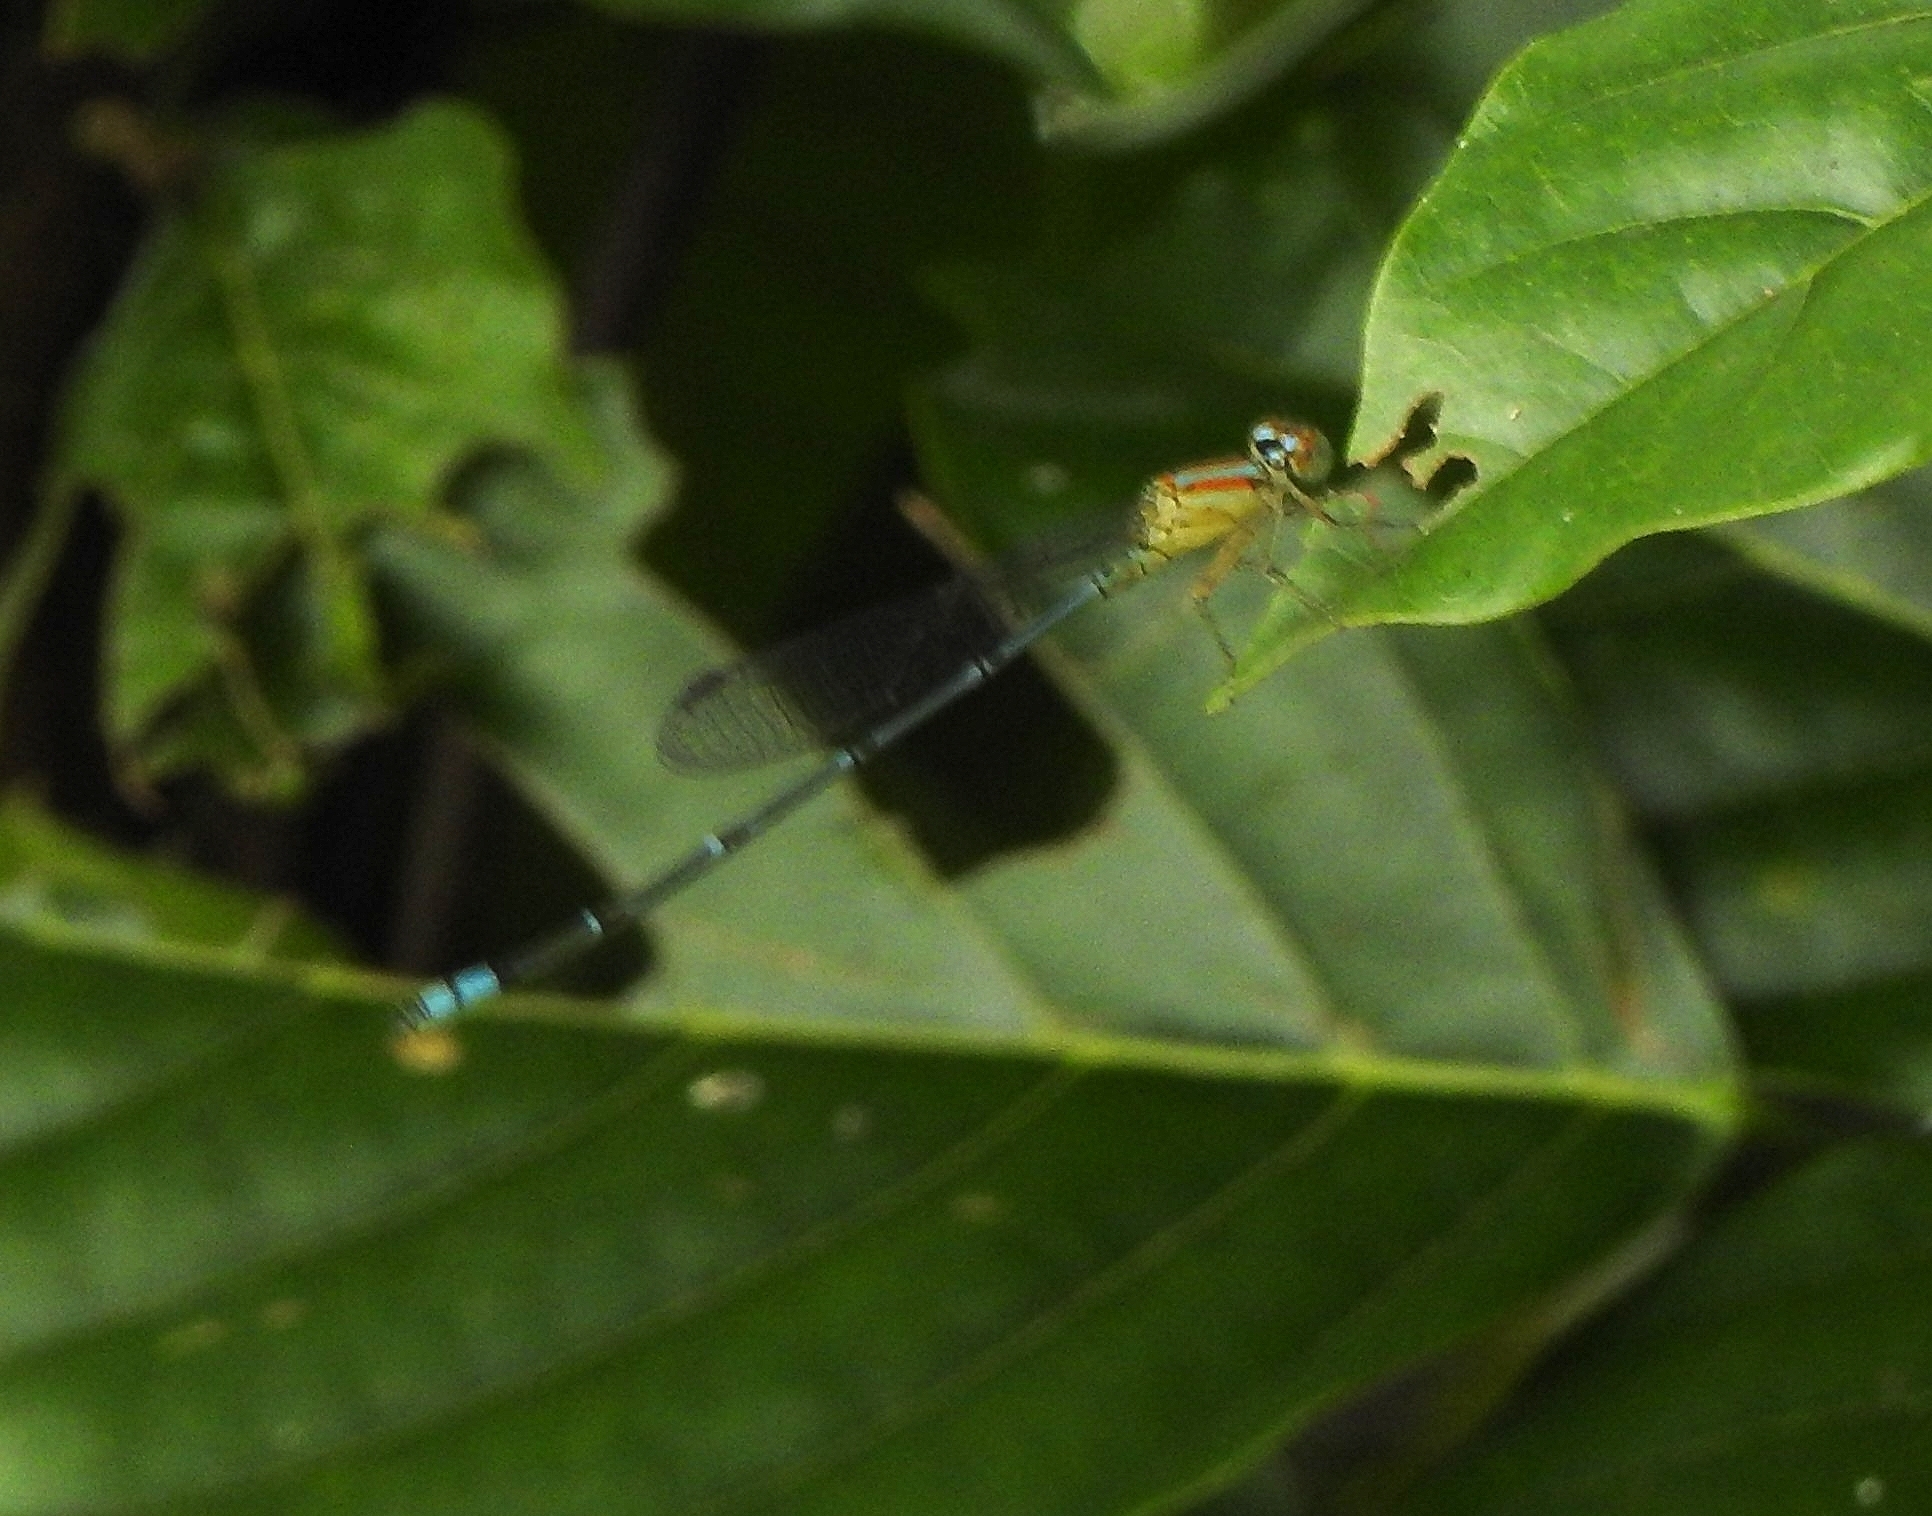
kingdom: Animalia
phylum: Arthropoda
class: Insecta
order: Odonata
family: Coenagrionidae
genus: Pseudagrion
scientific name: Pseudagrion microcephalum
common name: Blue riverdamsel
